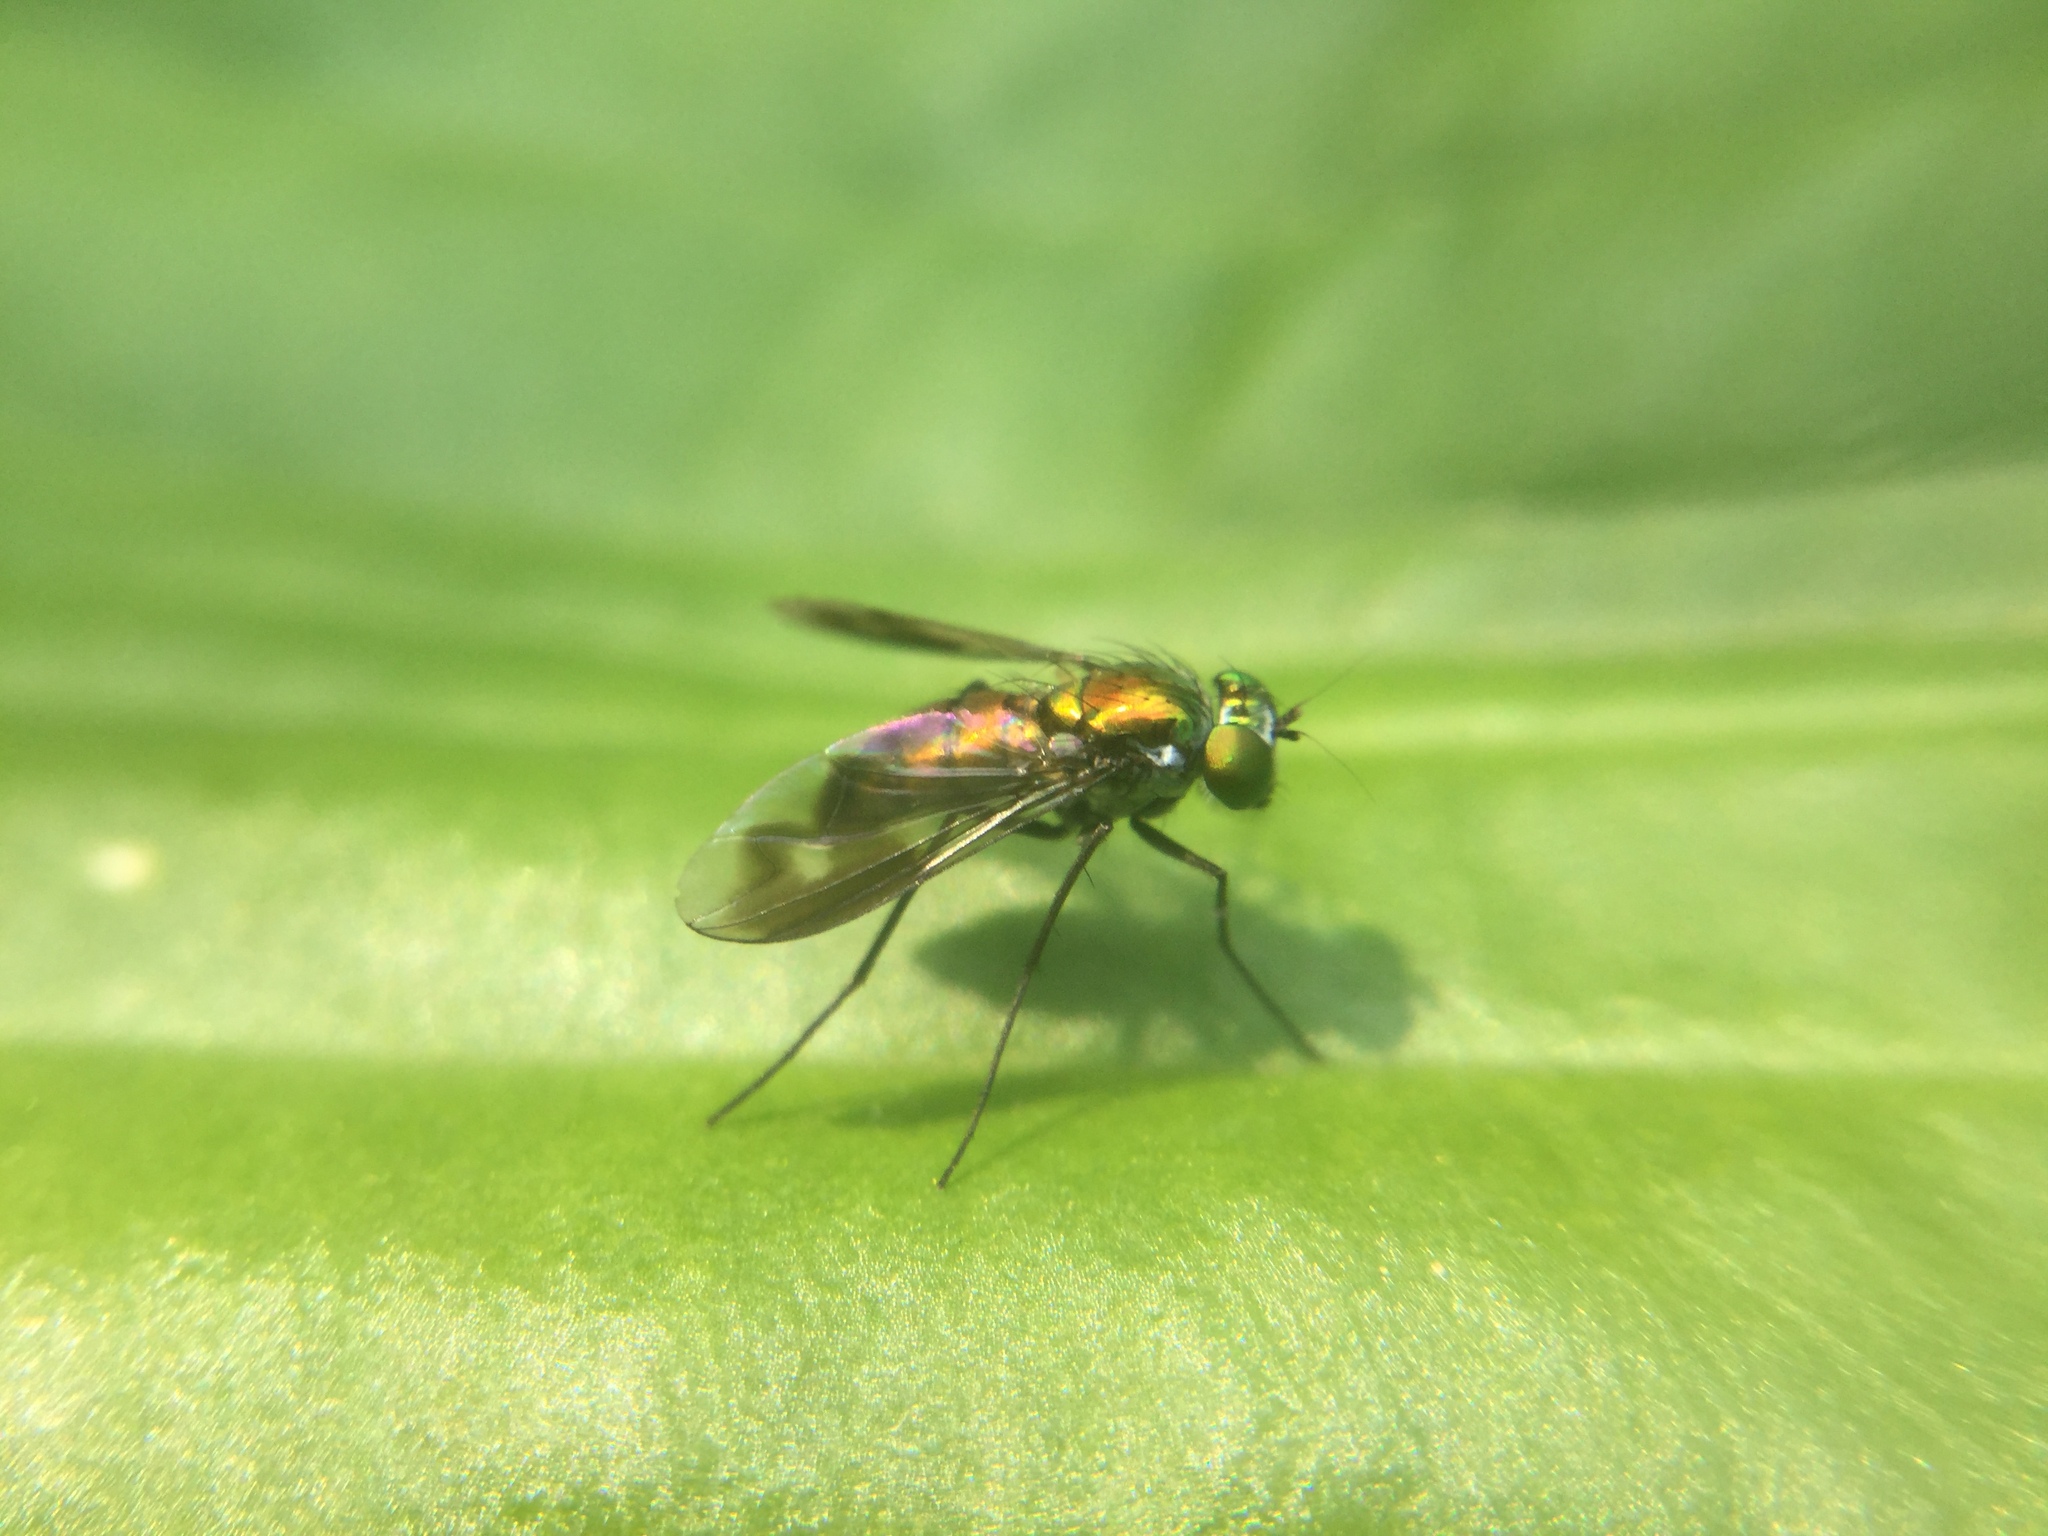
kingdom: Animalia
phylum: Arthropoda
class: Insecta
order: Diptera
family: Dolichopodidae
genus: Condylostylus
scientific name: Condylostylus patibulatus
